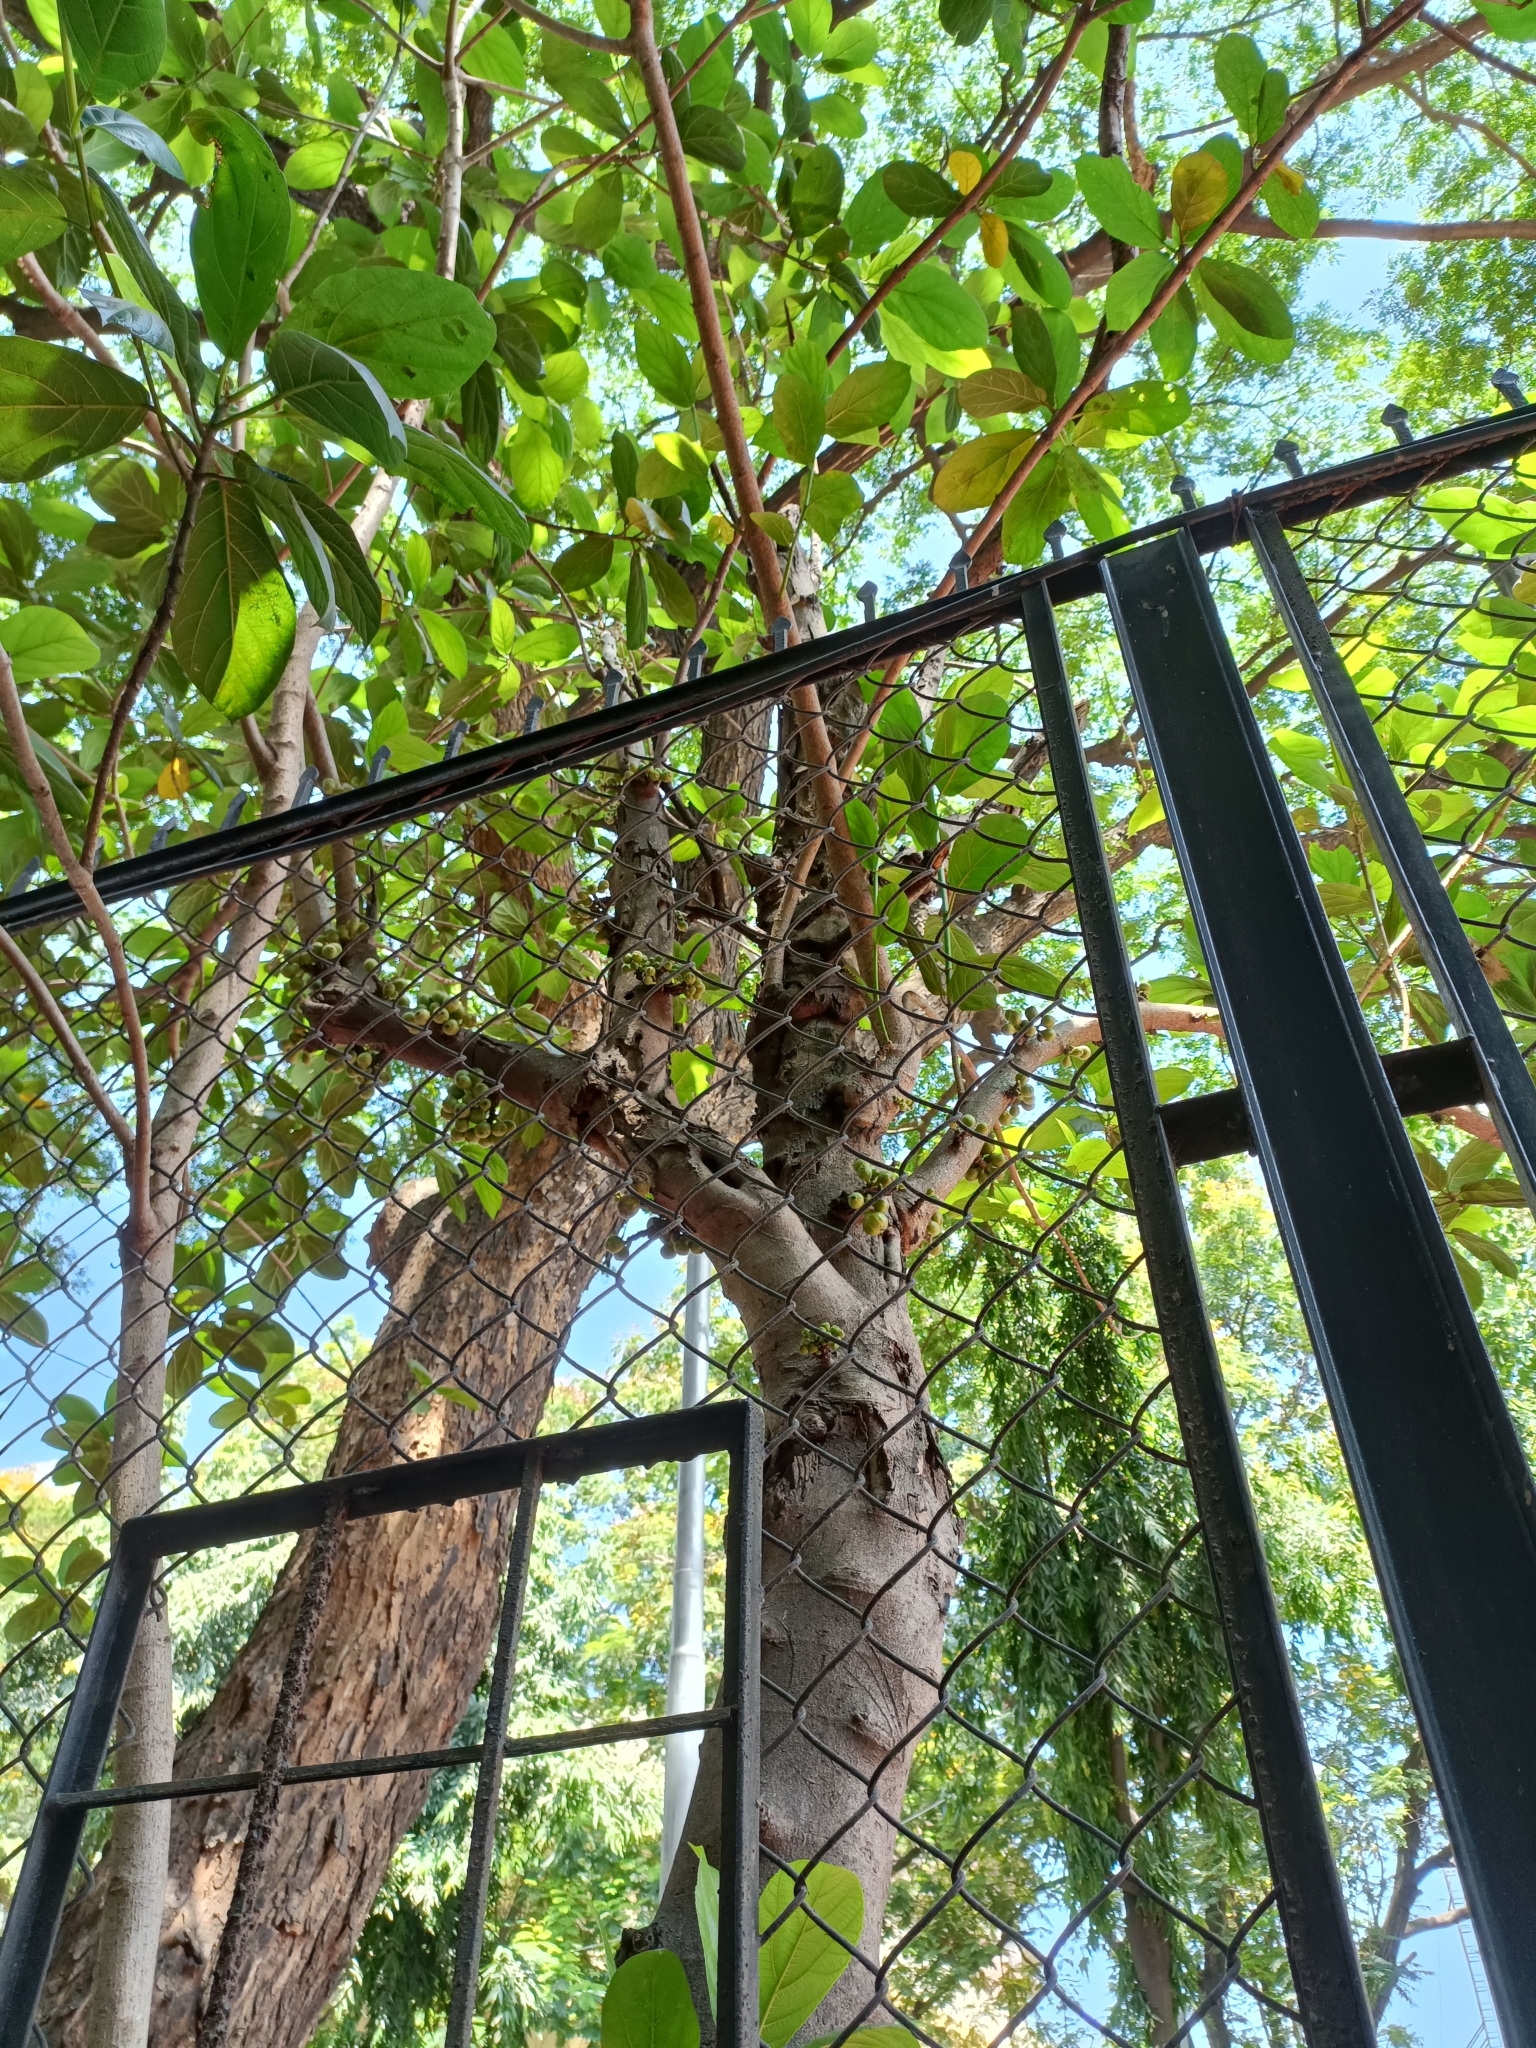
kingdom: Plantae
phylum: Tracheophyta
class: Magnoliopsida
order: Rosales
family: Moraceae
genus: Ficus
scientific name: Ficus racemosa
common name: Cluster fig
